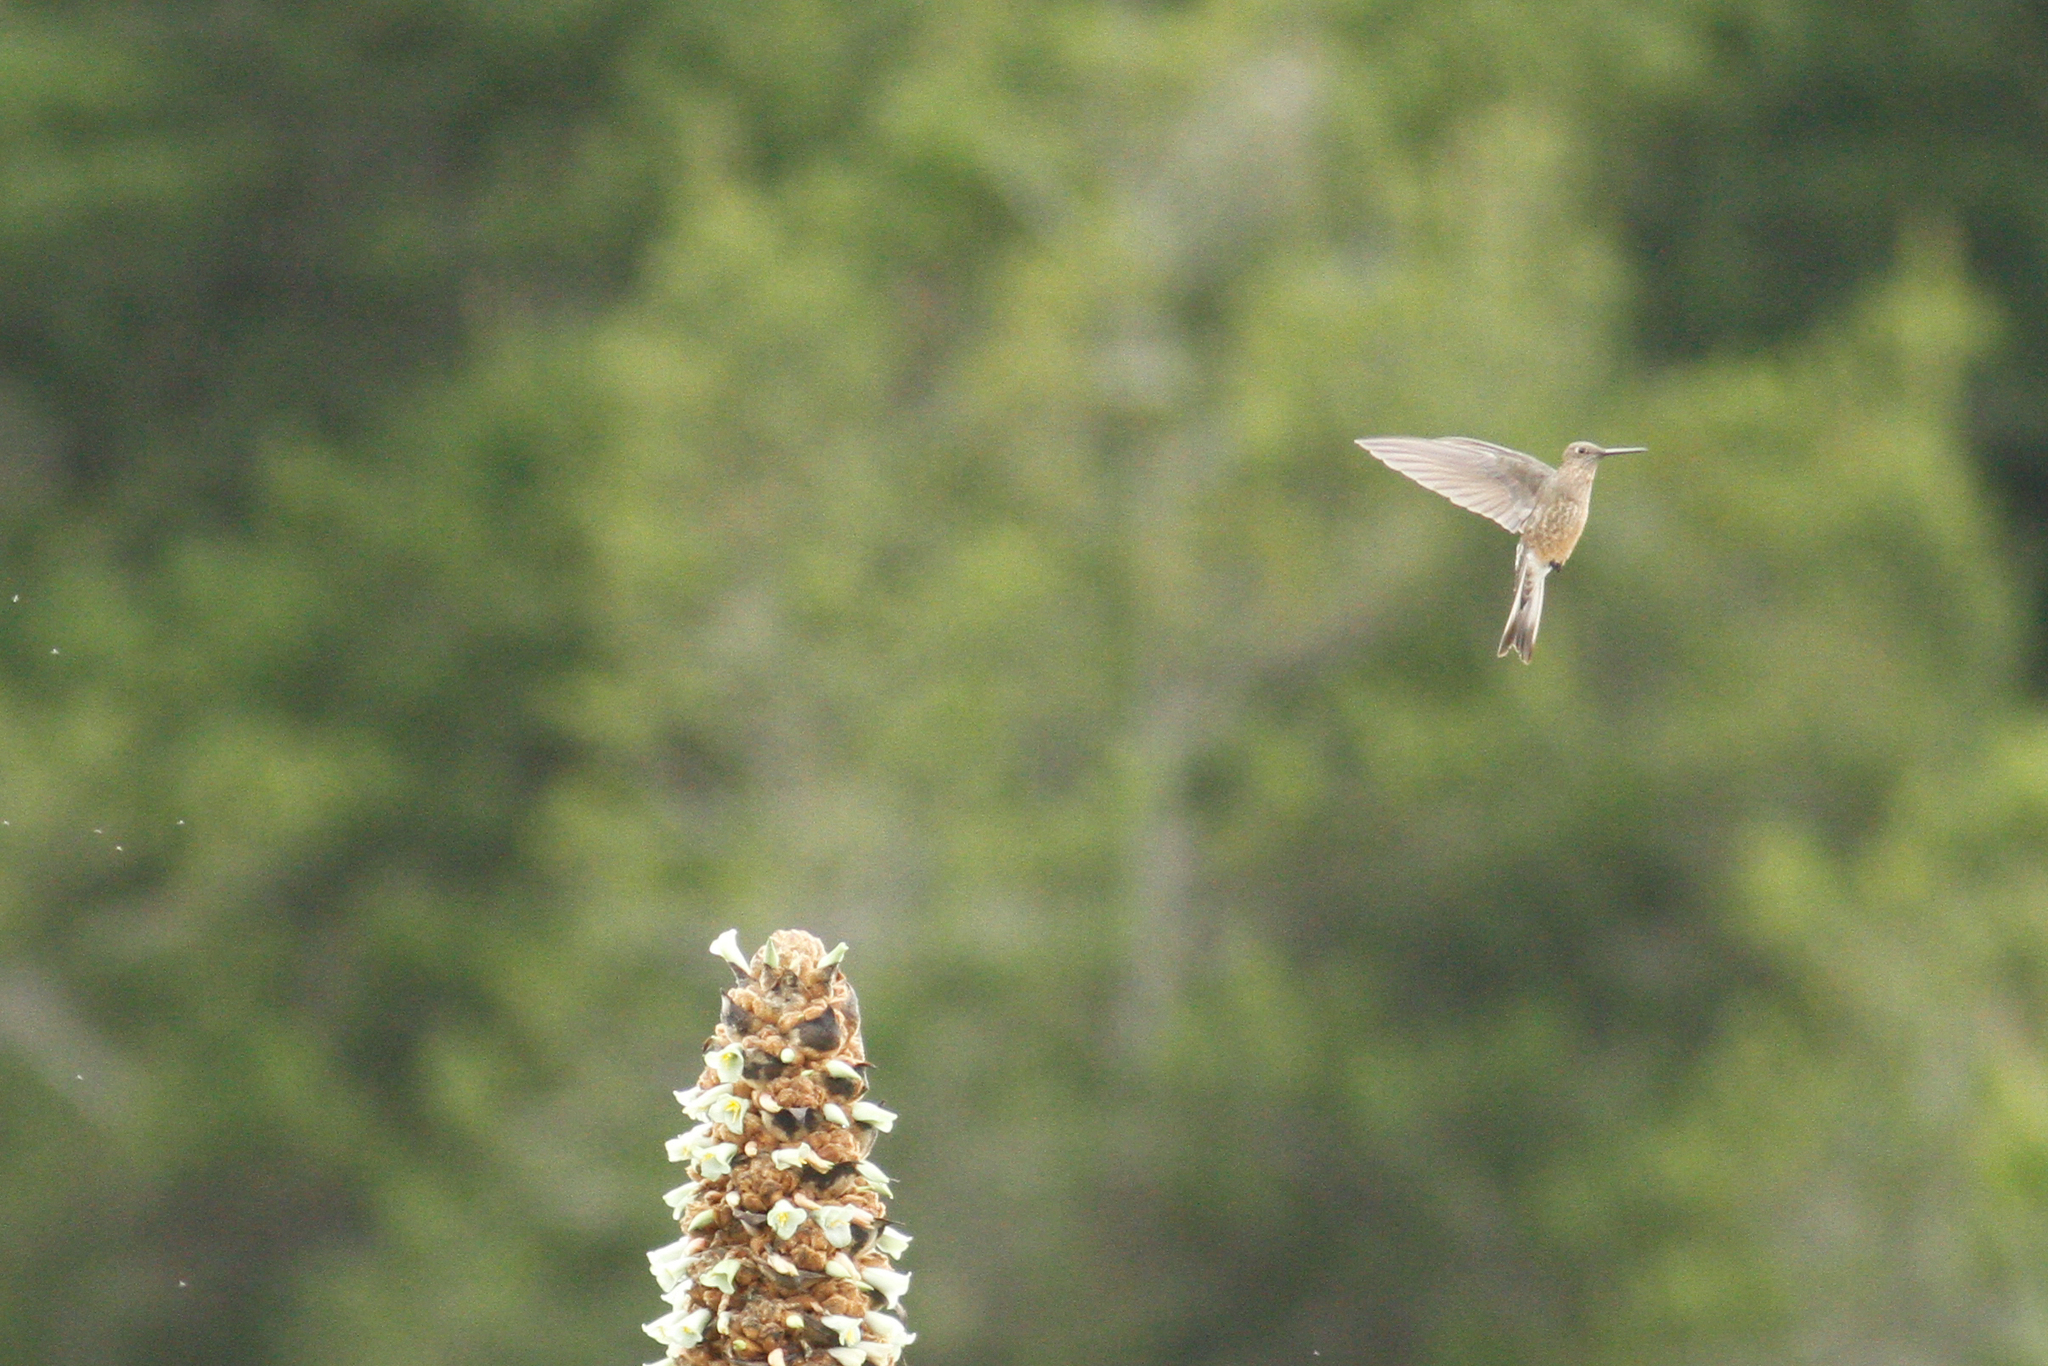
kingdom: Animalia
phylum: Chordata
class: Aves
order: Apodiformes
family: Trochilidae
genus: Aglaeactis
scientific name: Aglaeactis cupripennis
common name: Shining sunbeam
